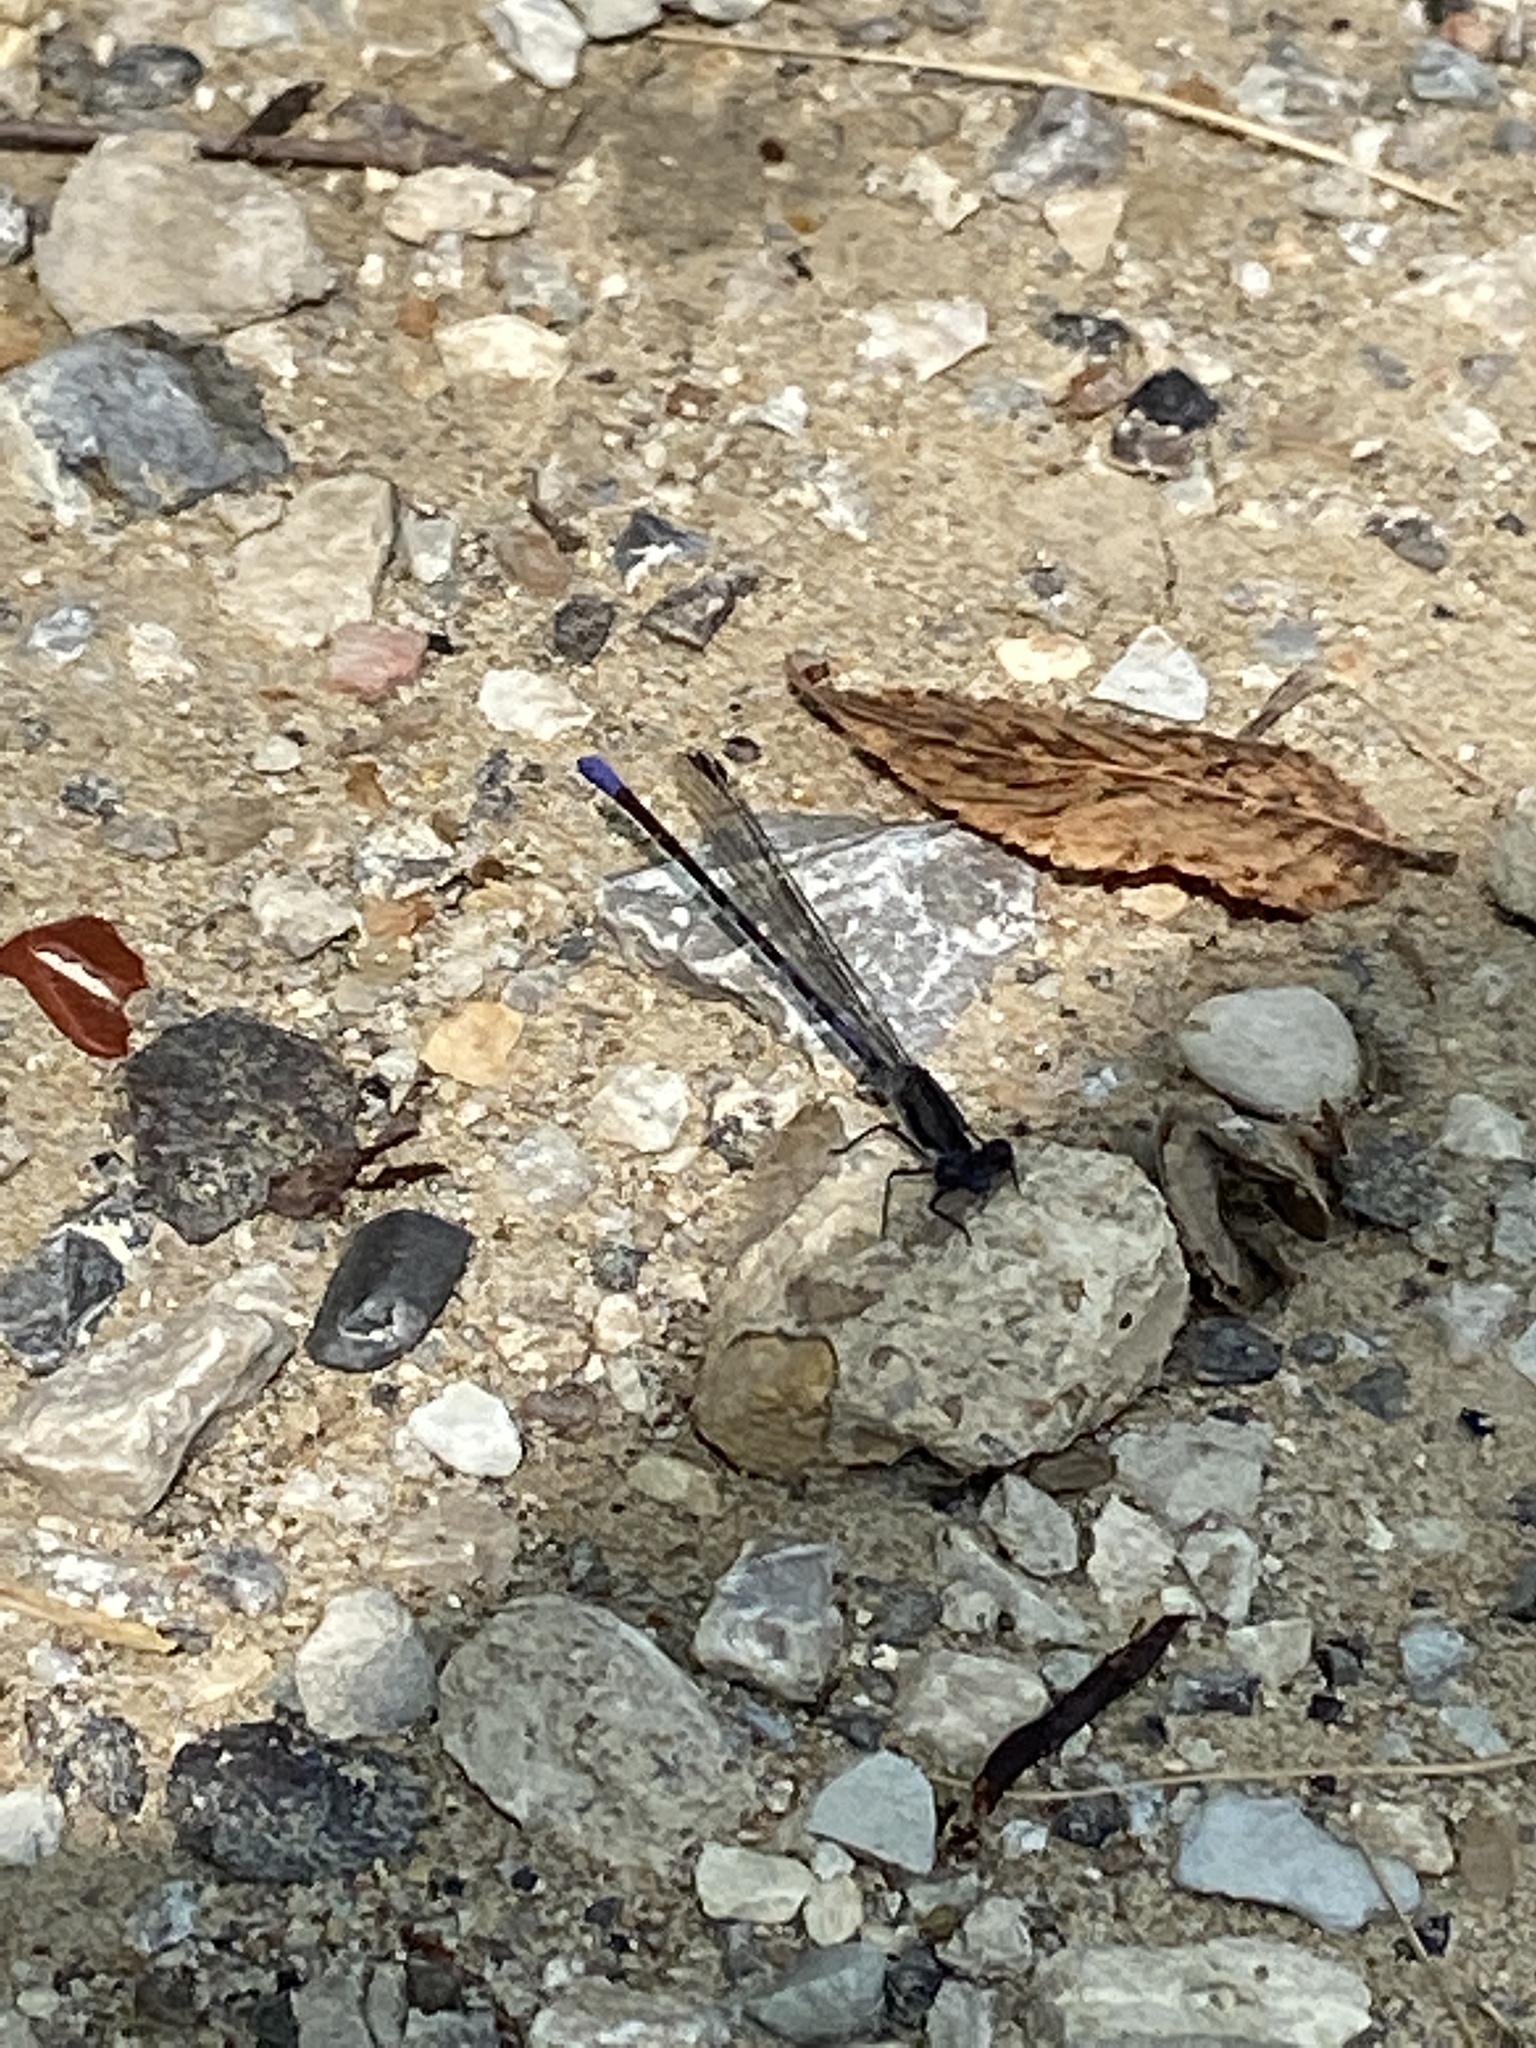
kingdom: Animalia
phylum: Arthropoda
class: Insecta
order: Odonata
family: Coenagrionidae
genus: Argia
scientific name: Argia immunda
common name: Kiowa dancer
